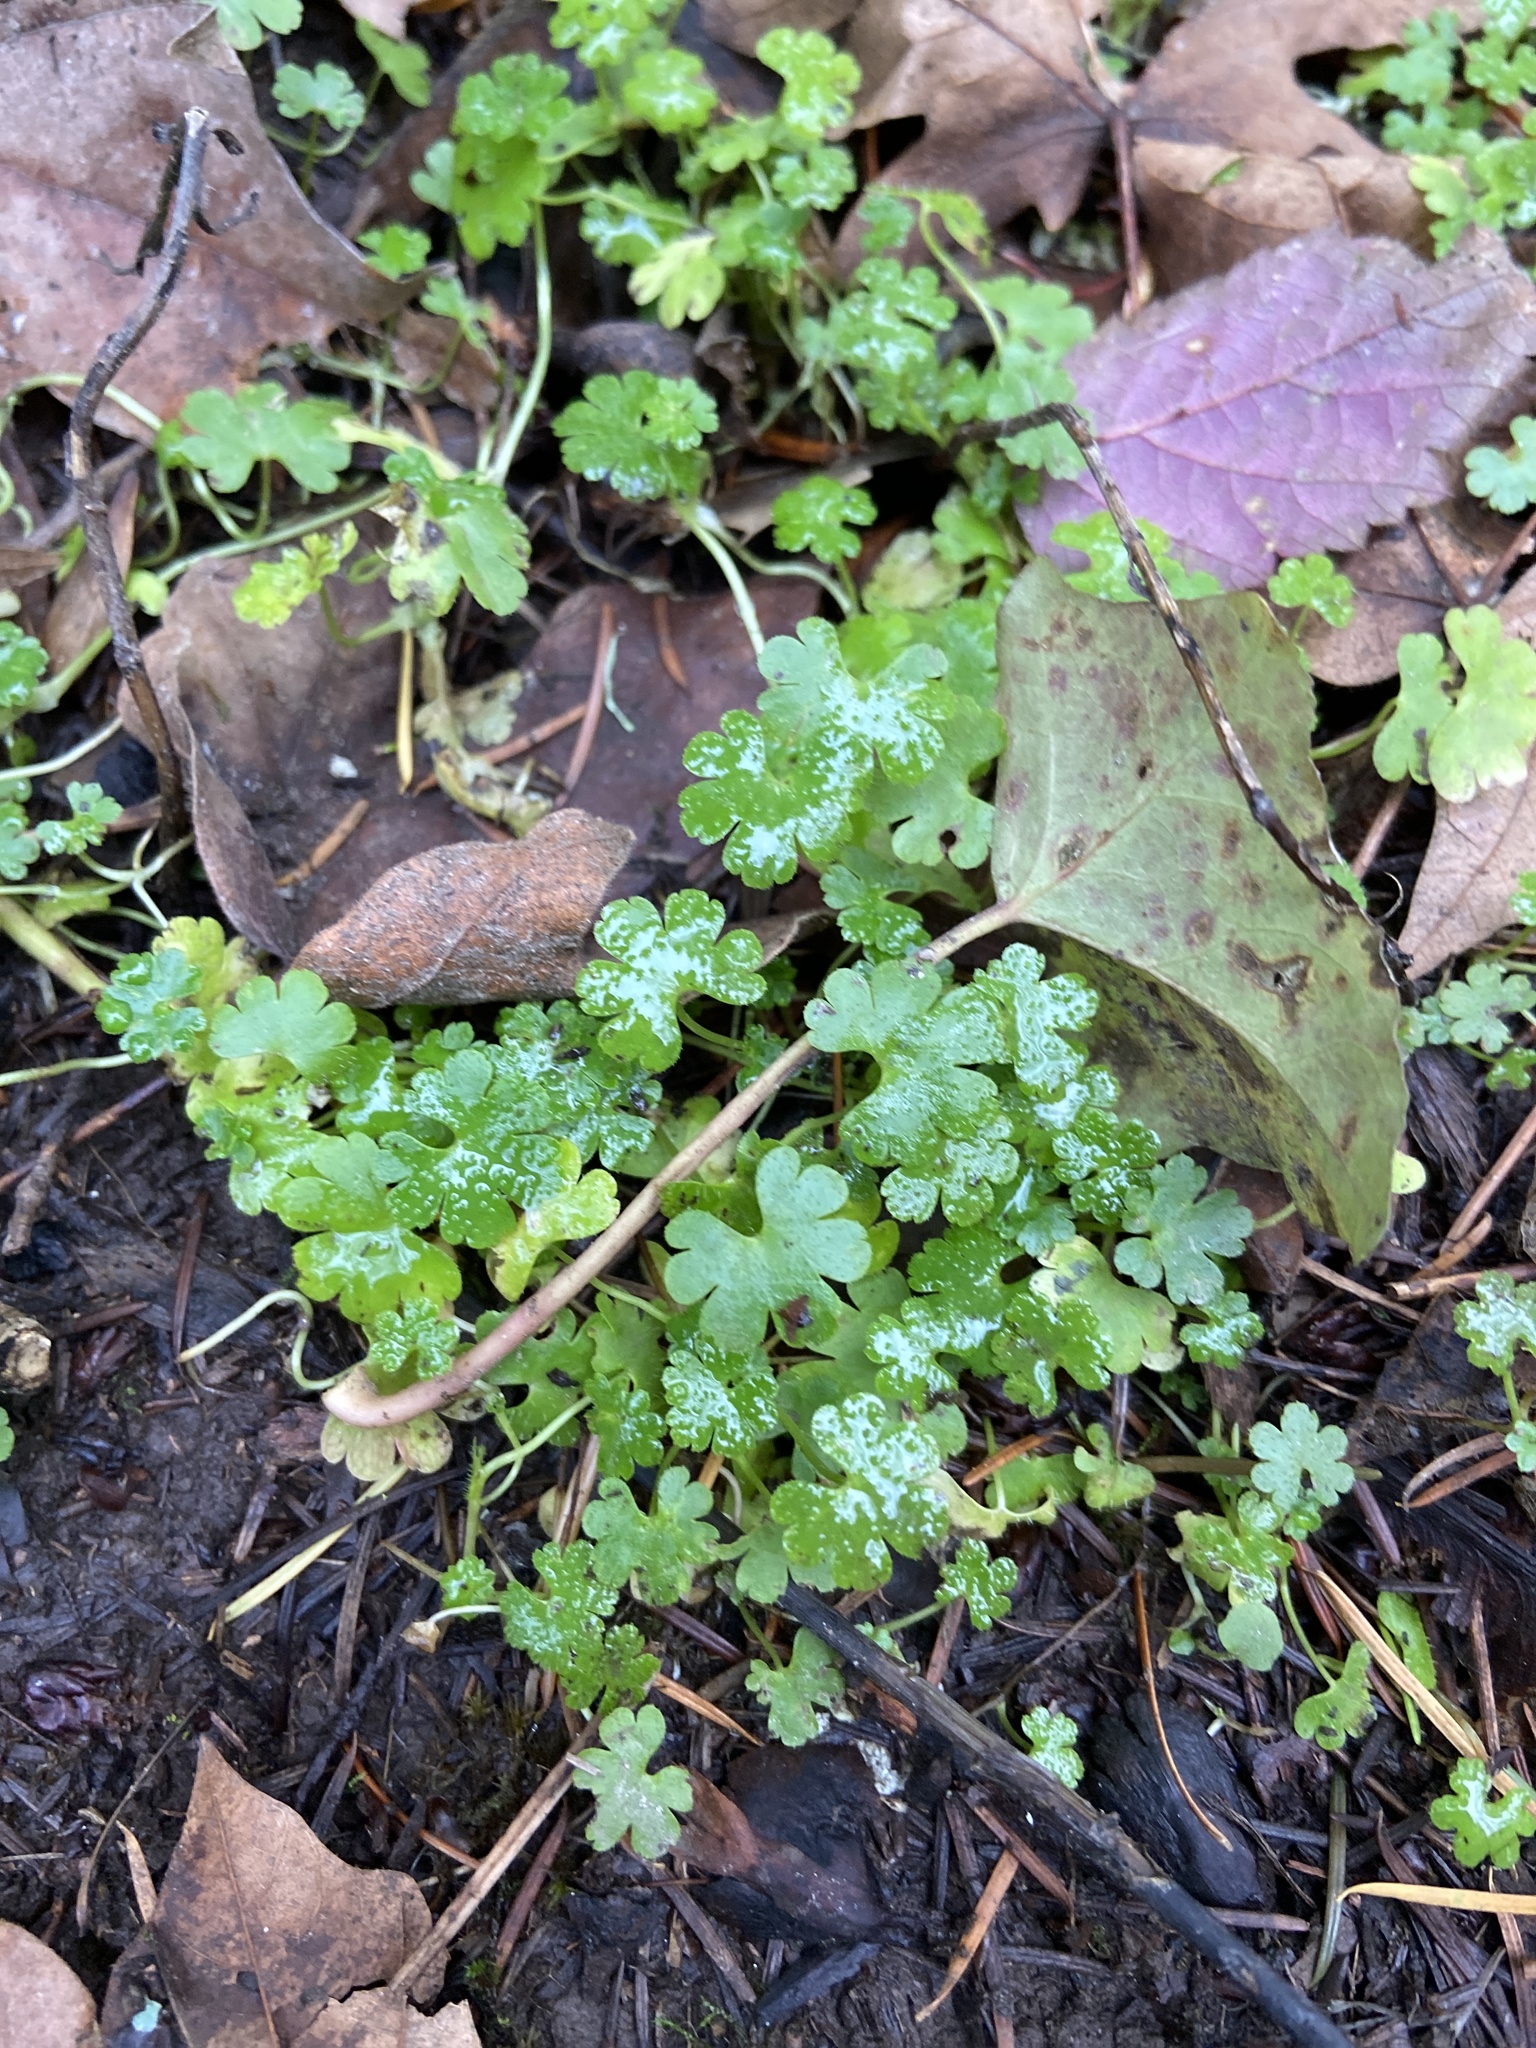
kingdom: Plantae
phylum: Tracheophyta
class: Magnoliopsida
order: Geraniales
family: Geraniaceae
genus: Geranium
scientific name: Geranium lucidum
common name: Shining crane's-bill
